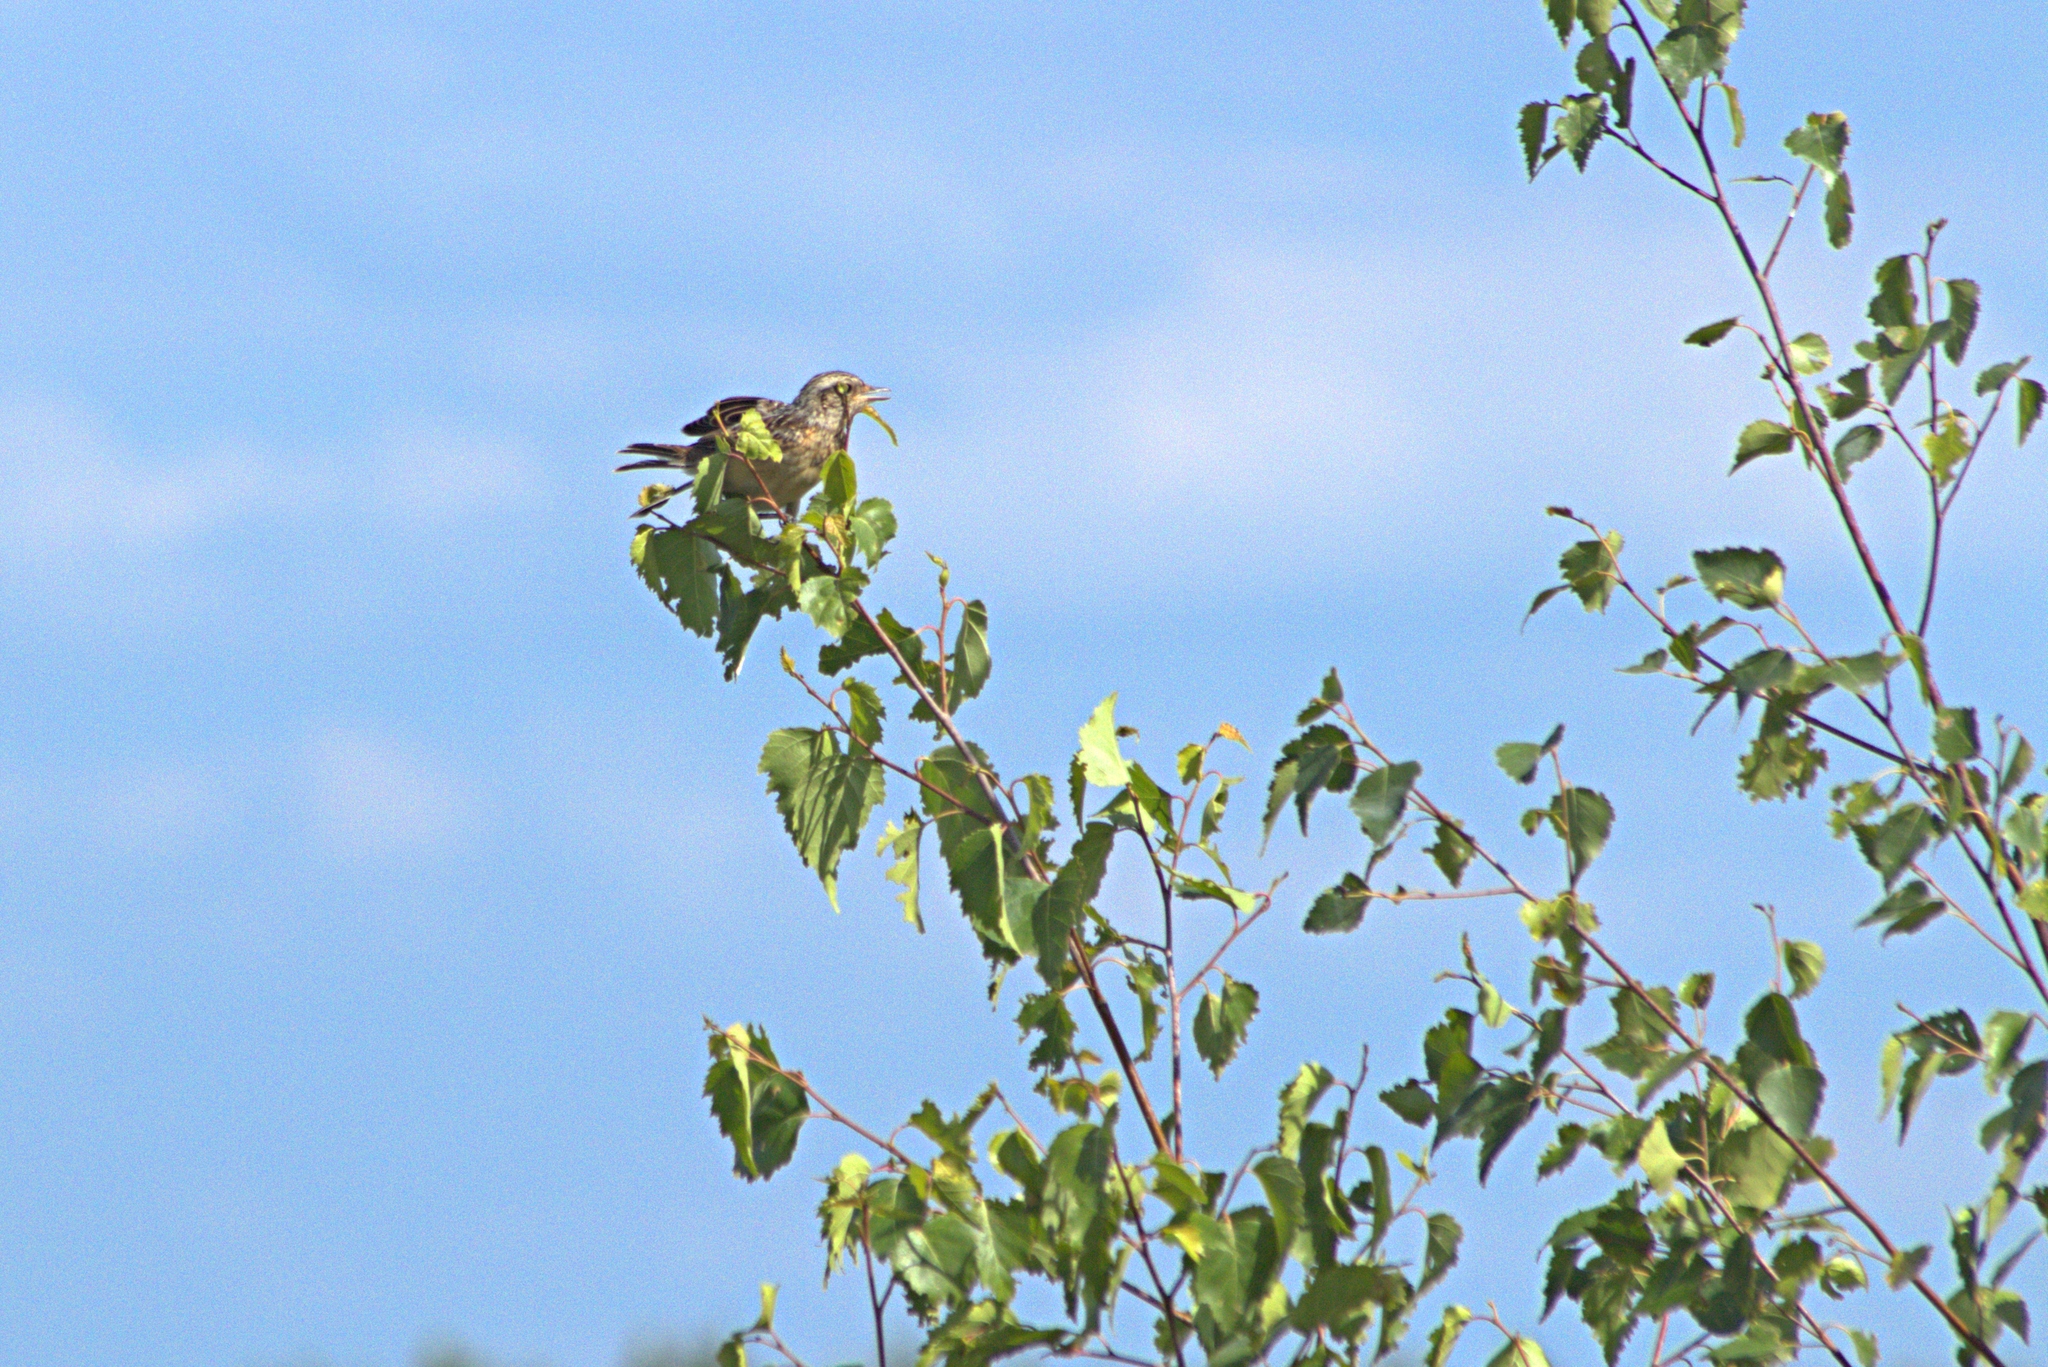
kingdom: Animalia
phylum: Chordata
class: Aves
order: Passeriformes
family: Muscicapidae
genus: Saxicola
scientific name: Saxicola rubetra
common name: Whinchat
